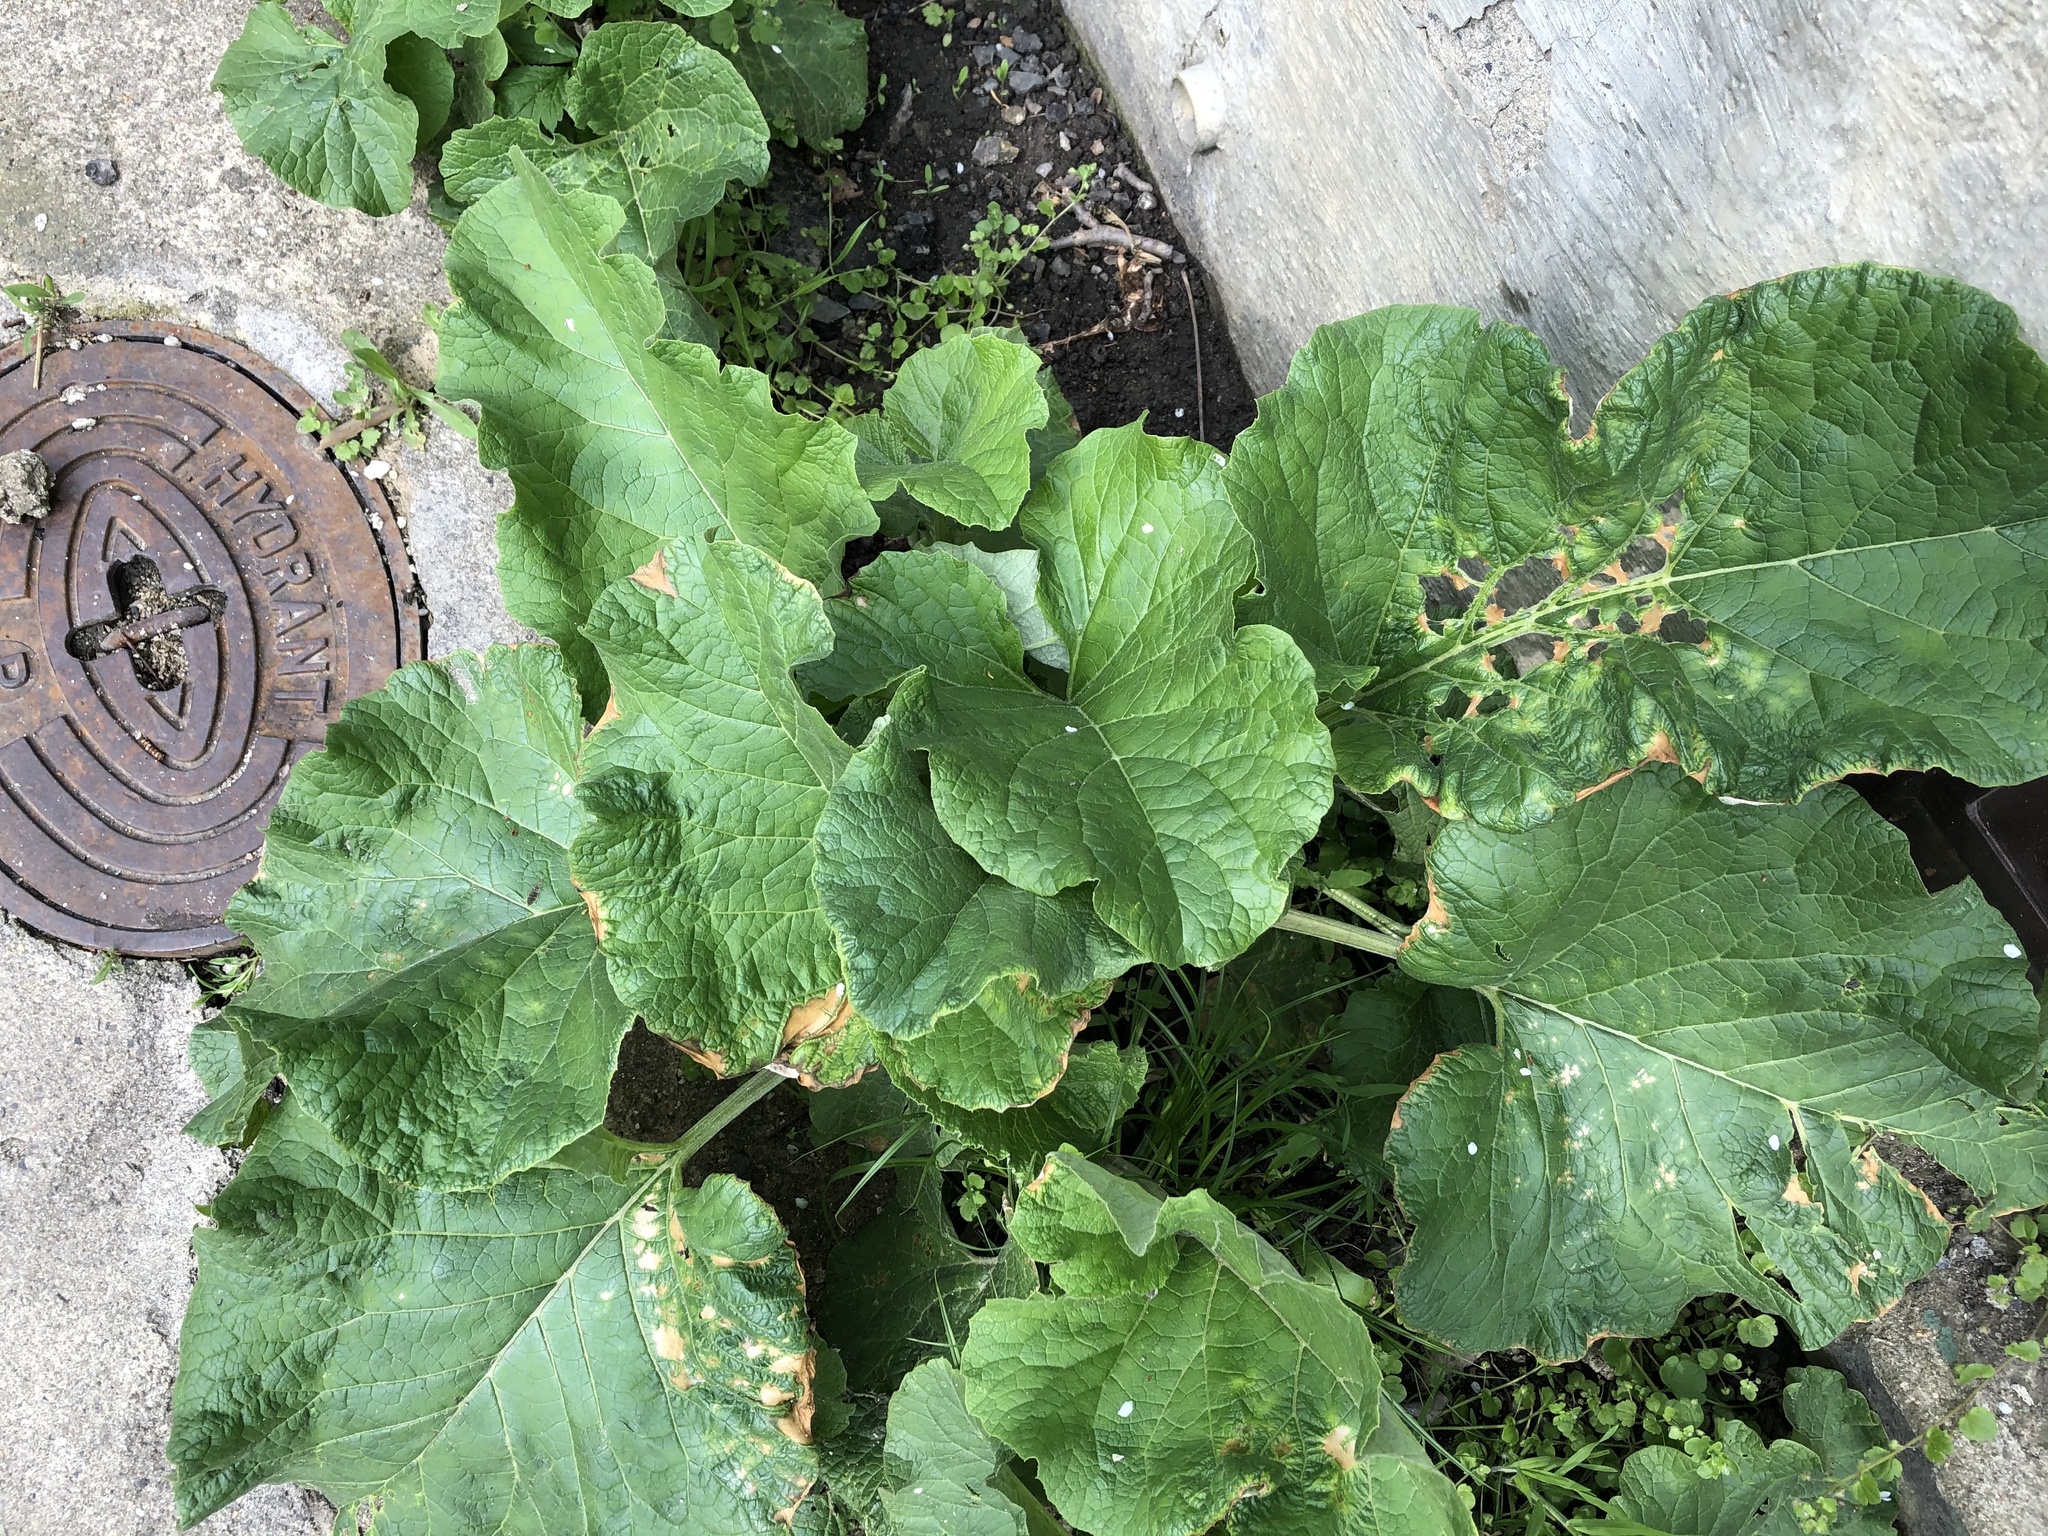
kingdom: Plantae
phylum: Tracheophyta
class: Magnoliopsida
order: Asterales
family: Asteraceae
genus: Arctium
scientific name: Arctium
